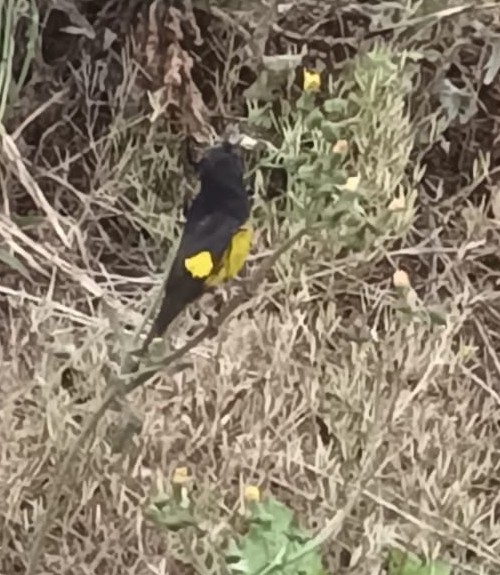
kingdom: Animalia
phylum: Chordata
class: Aves
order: Passeriformes
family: Fringillidae
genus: Spinus
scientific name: Spinus xanthogastrus
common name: Yellow-bellied siskin
